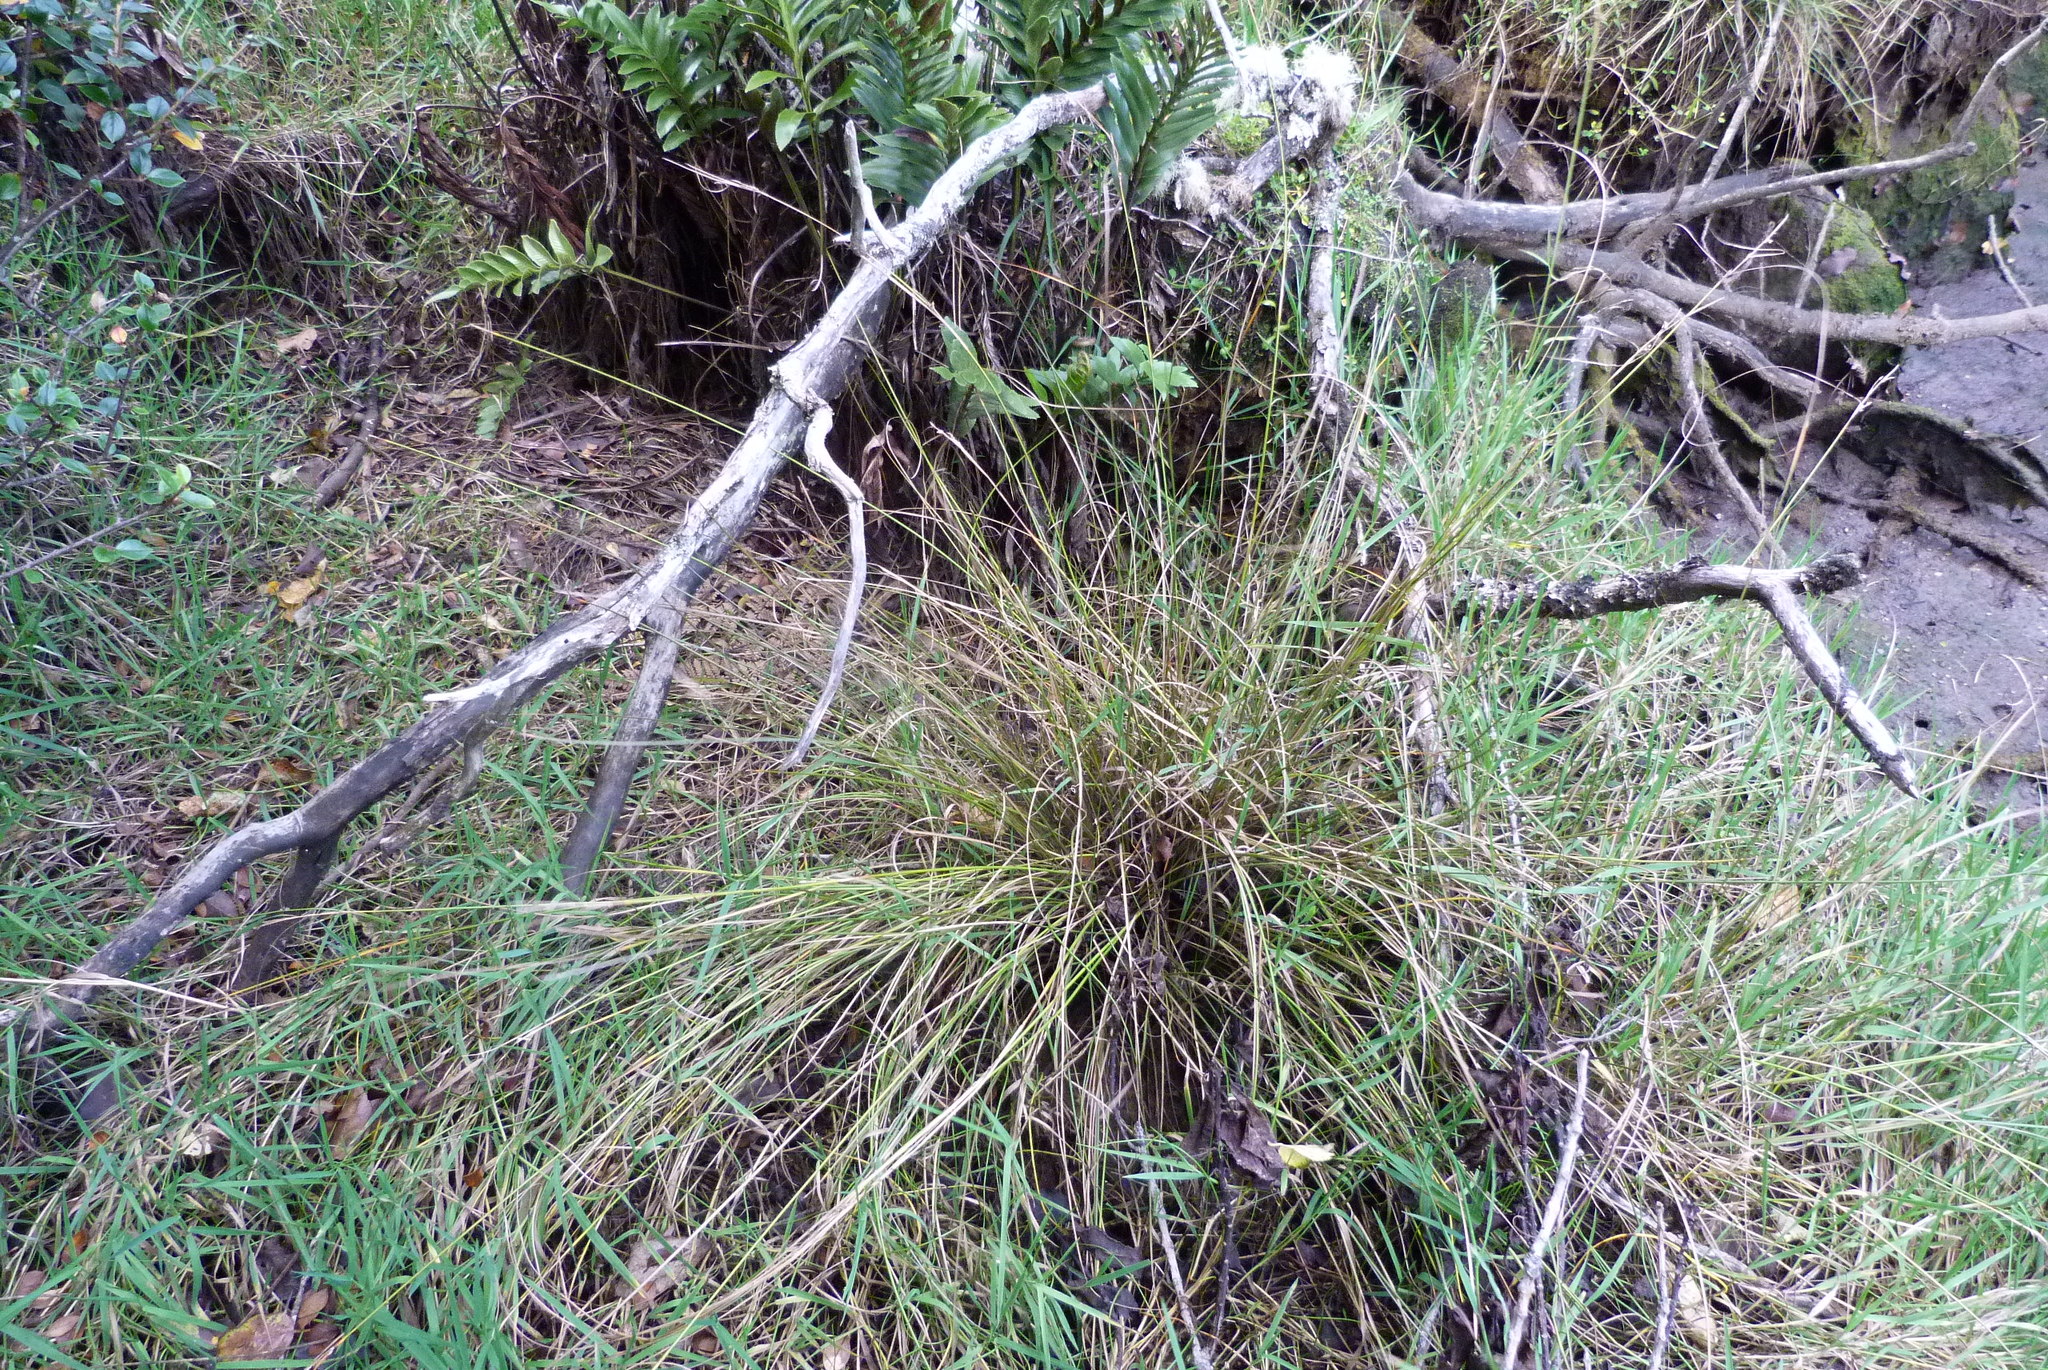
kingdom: Plantae
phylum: Tracheophyta
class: Liliopsida
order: Poales
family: Cyperaceae
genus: Carex
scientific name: Carex litorosa
